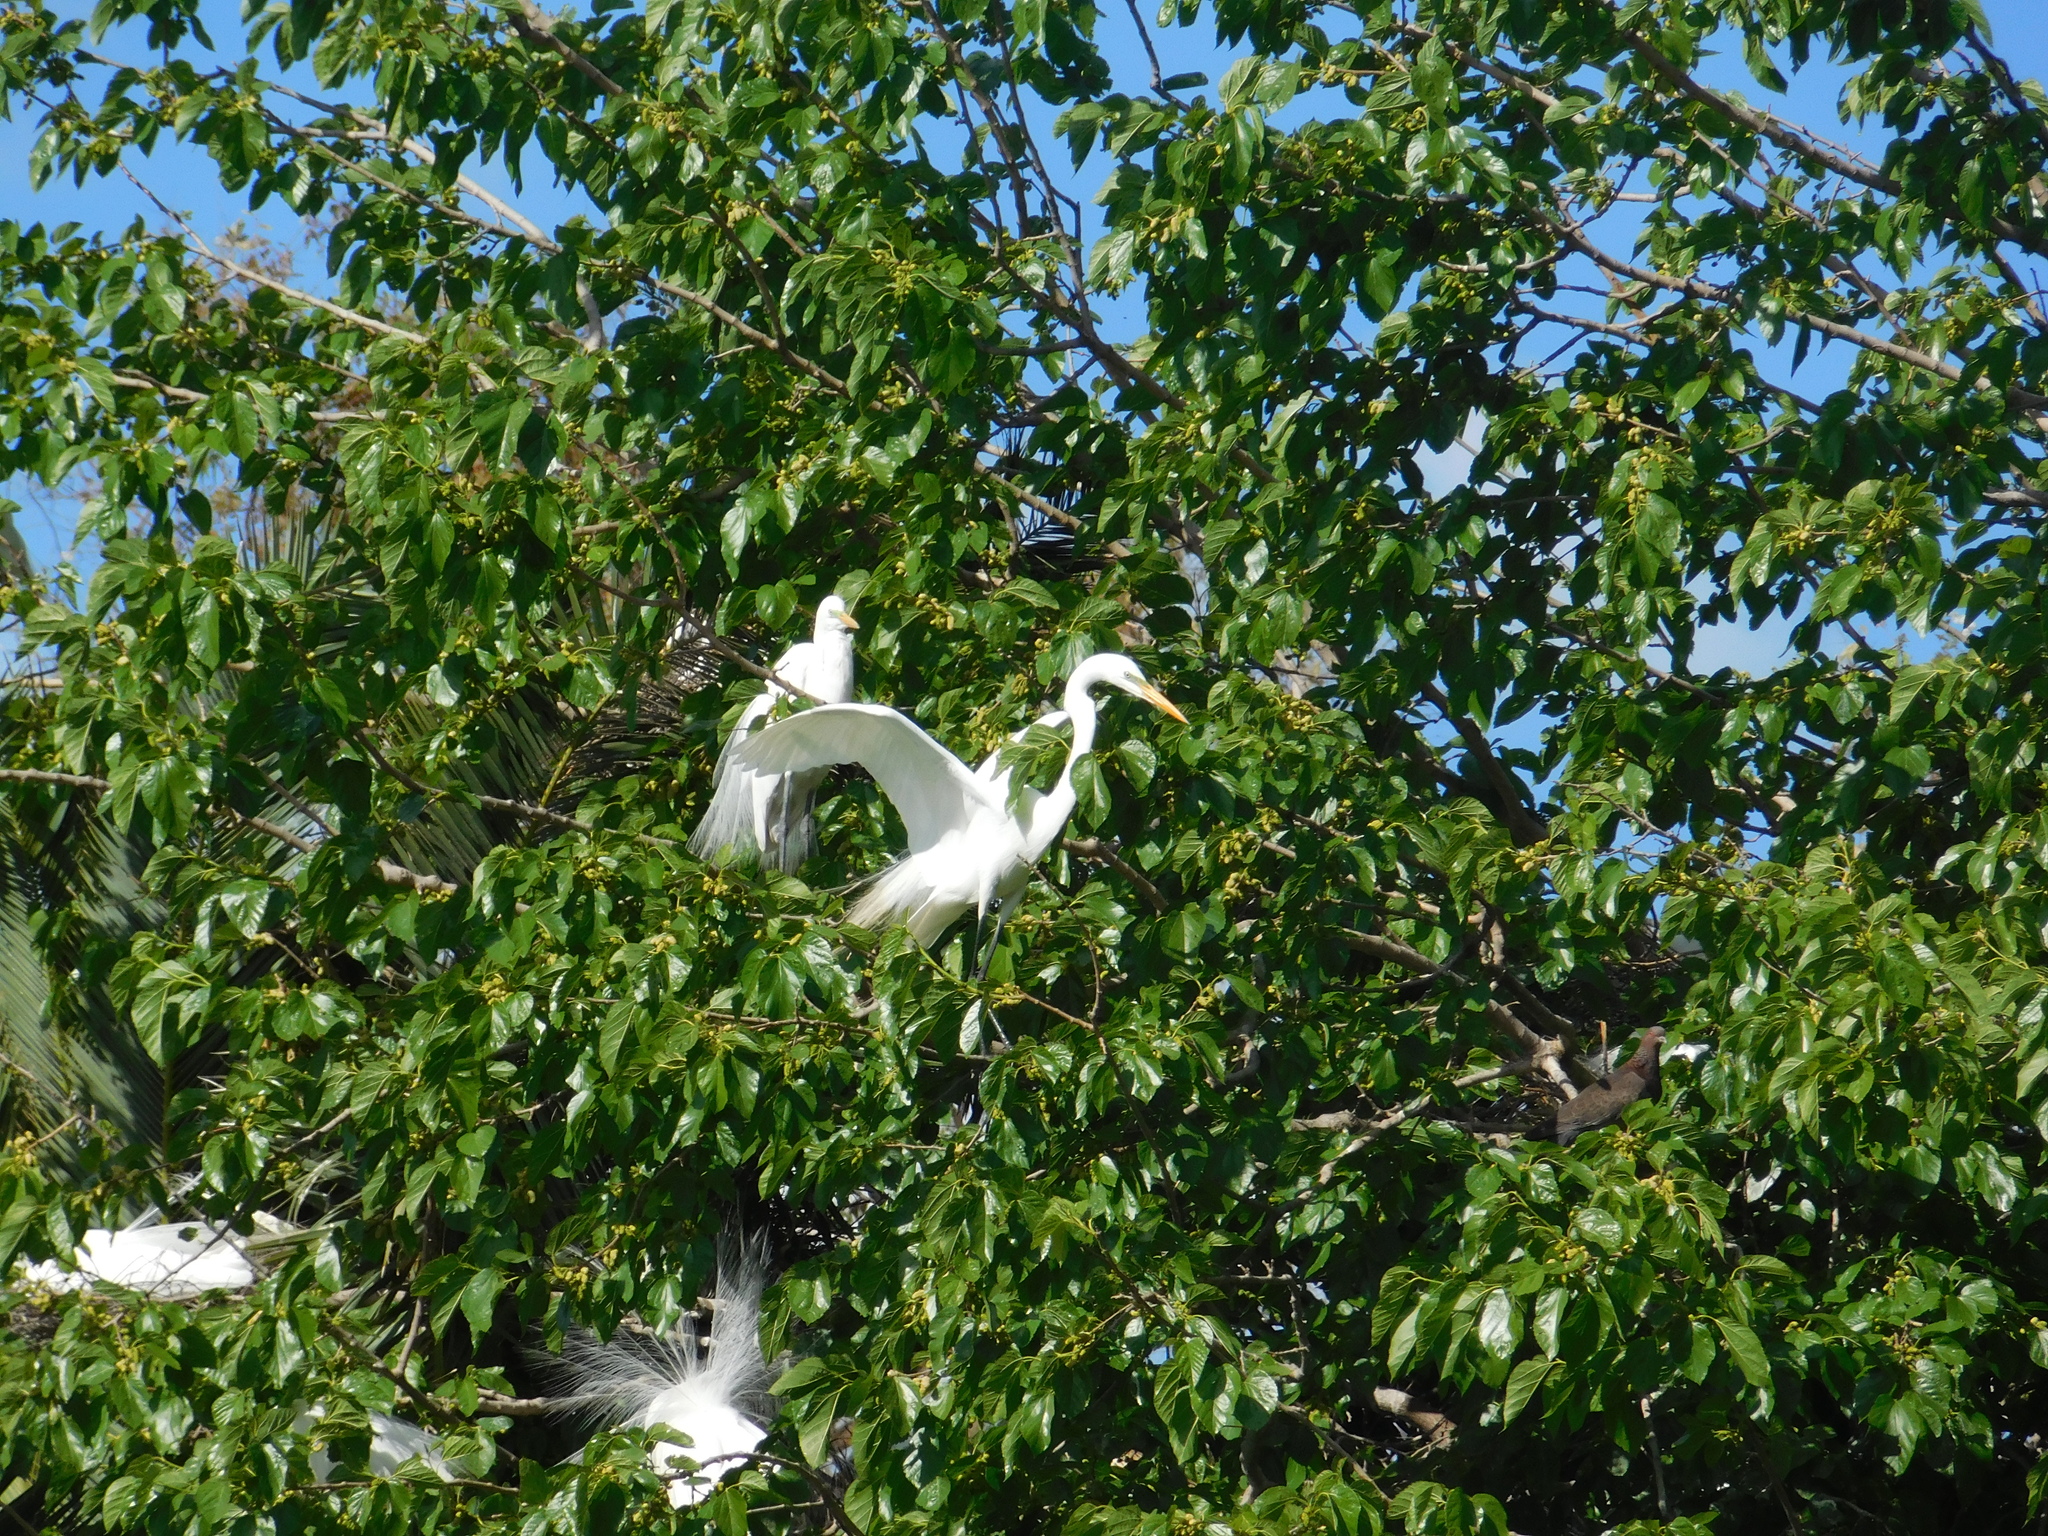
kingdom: Animalia
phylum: Chordata
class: Aves
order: Pelecaniformes
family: Ardeidae
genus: Ardea
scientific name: Ardea alba
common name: Great egret
